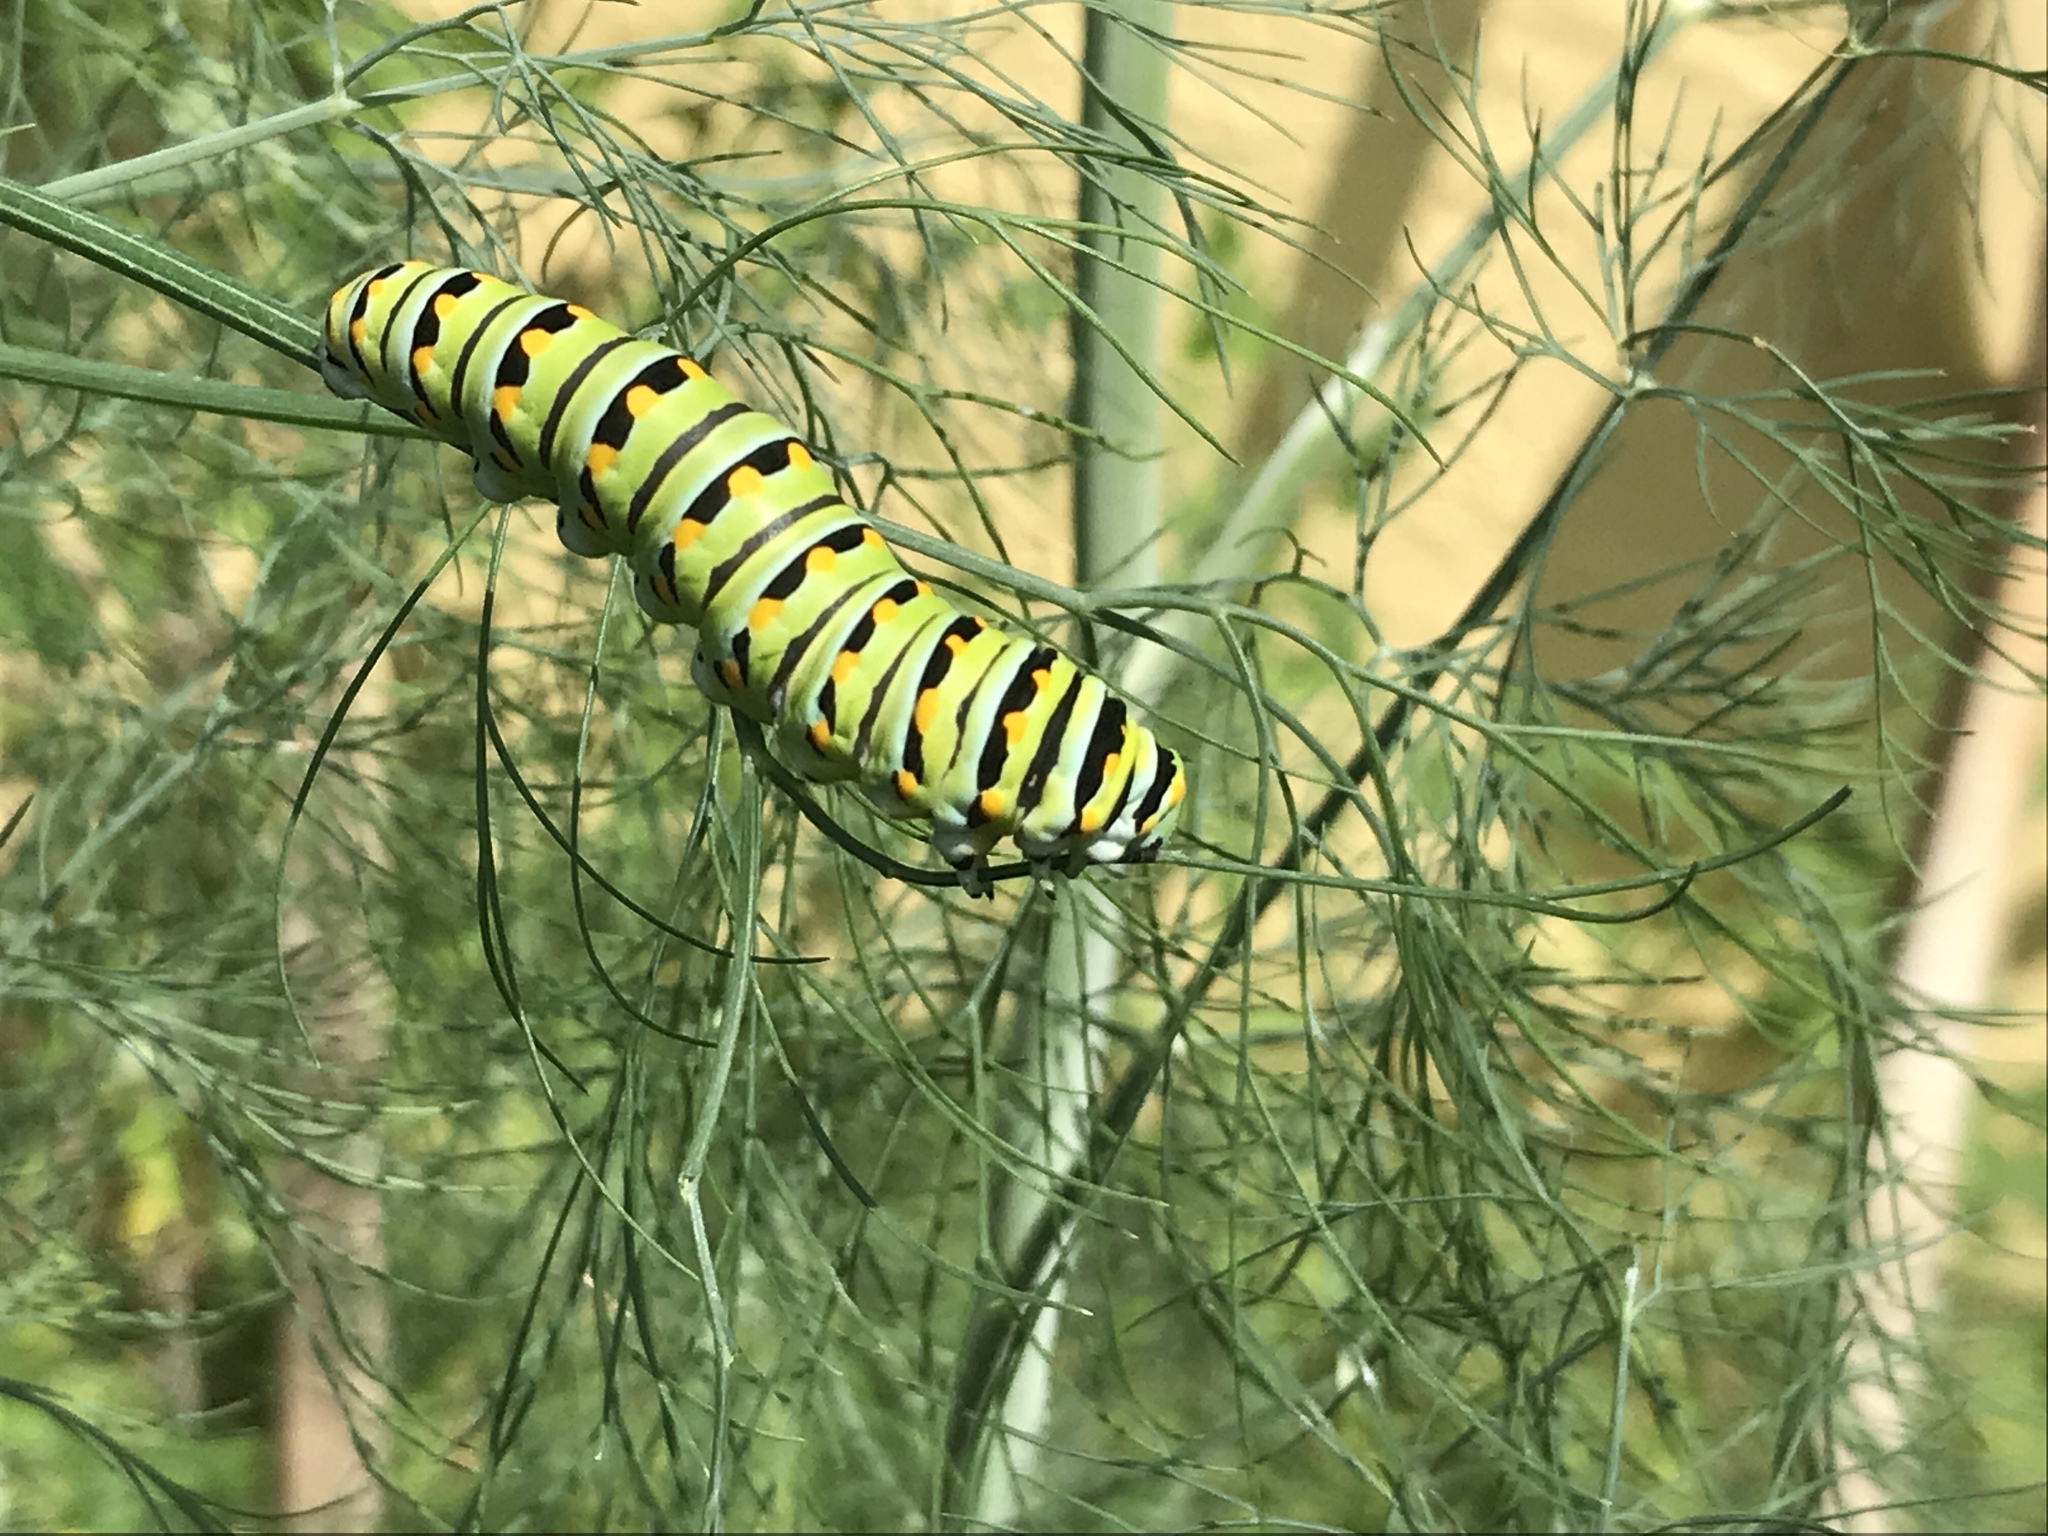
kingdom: Animalia
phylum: Arthropoda
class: Insecta
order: Lepidoptera
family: Papilionidae
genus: Papilio
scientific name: Papilio polyxenes
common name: Black swallowtail
